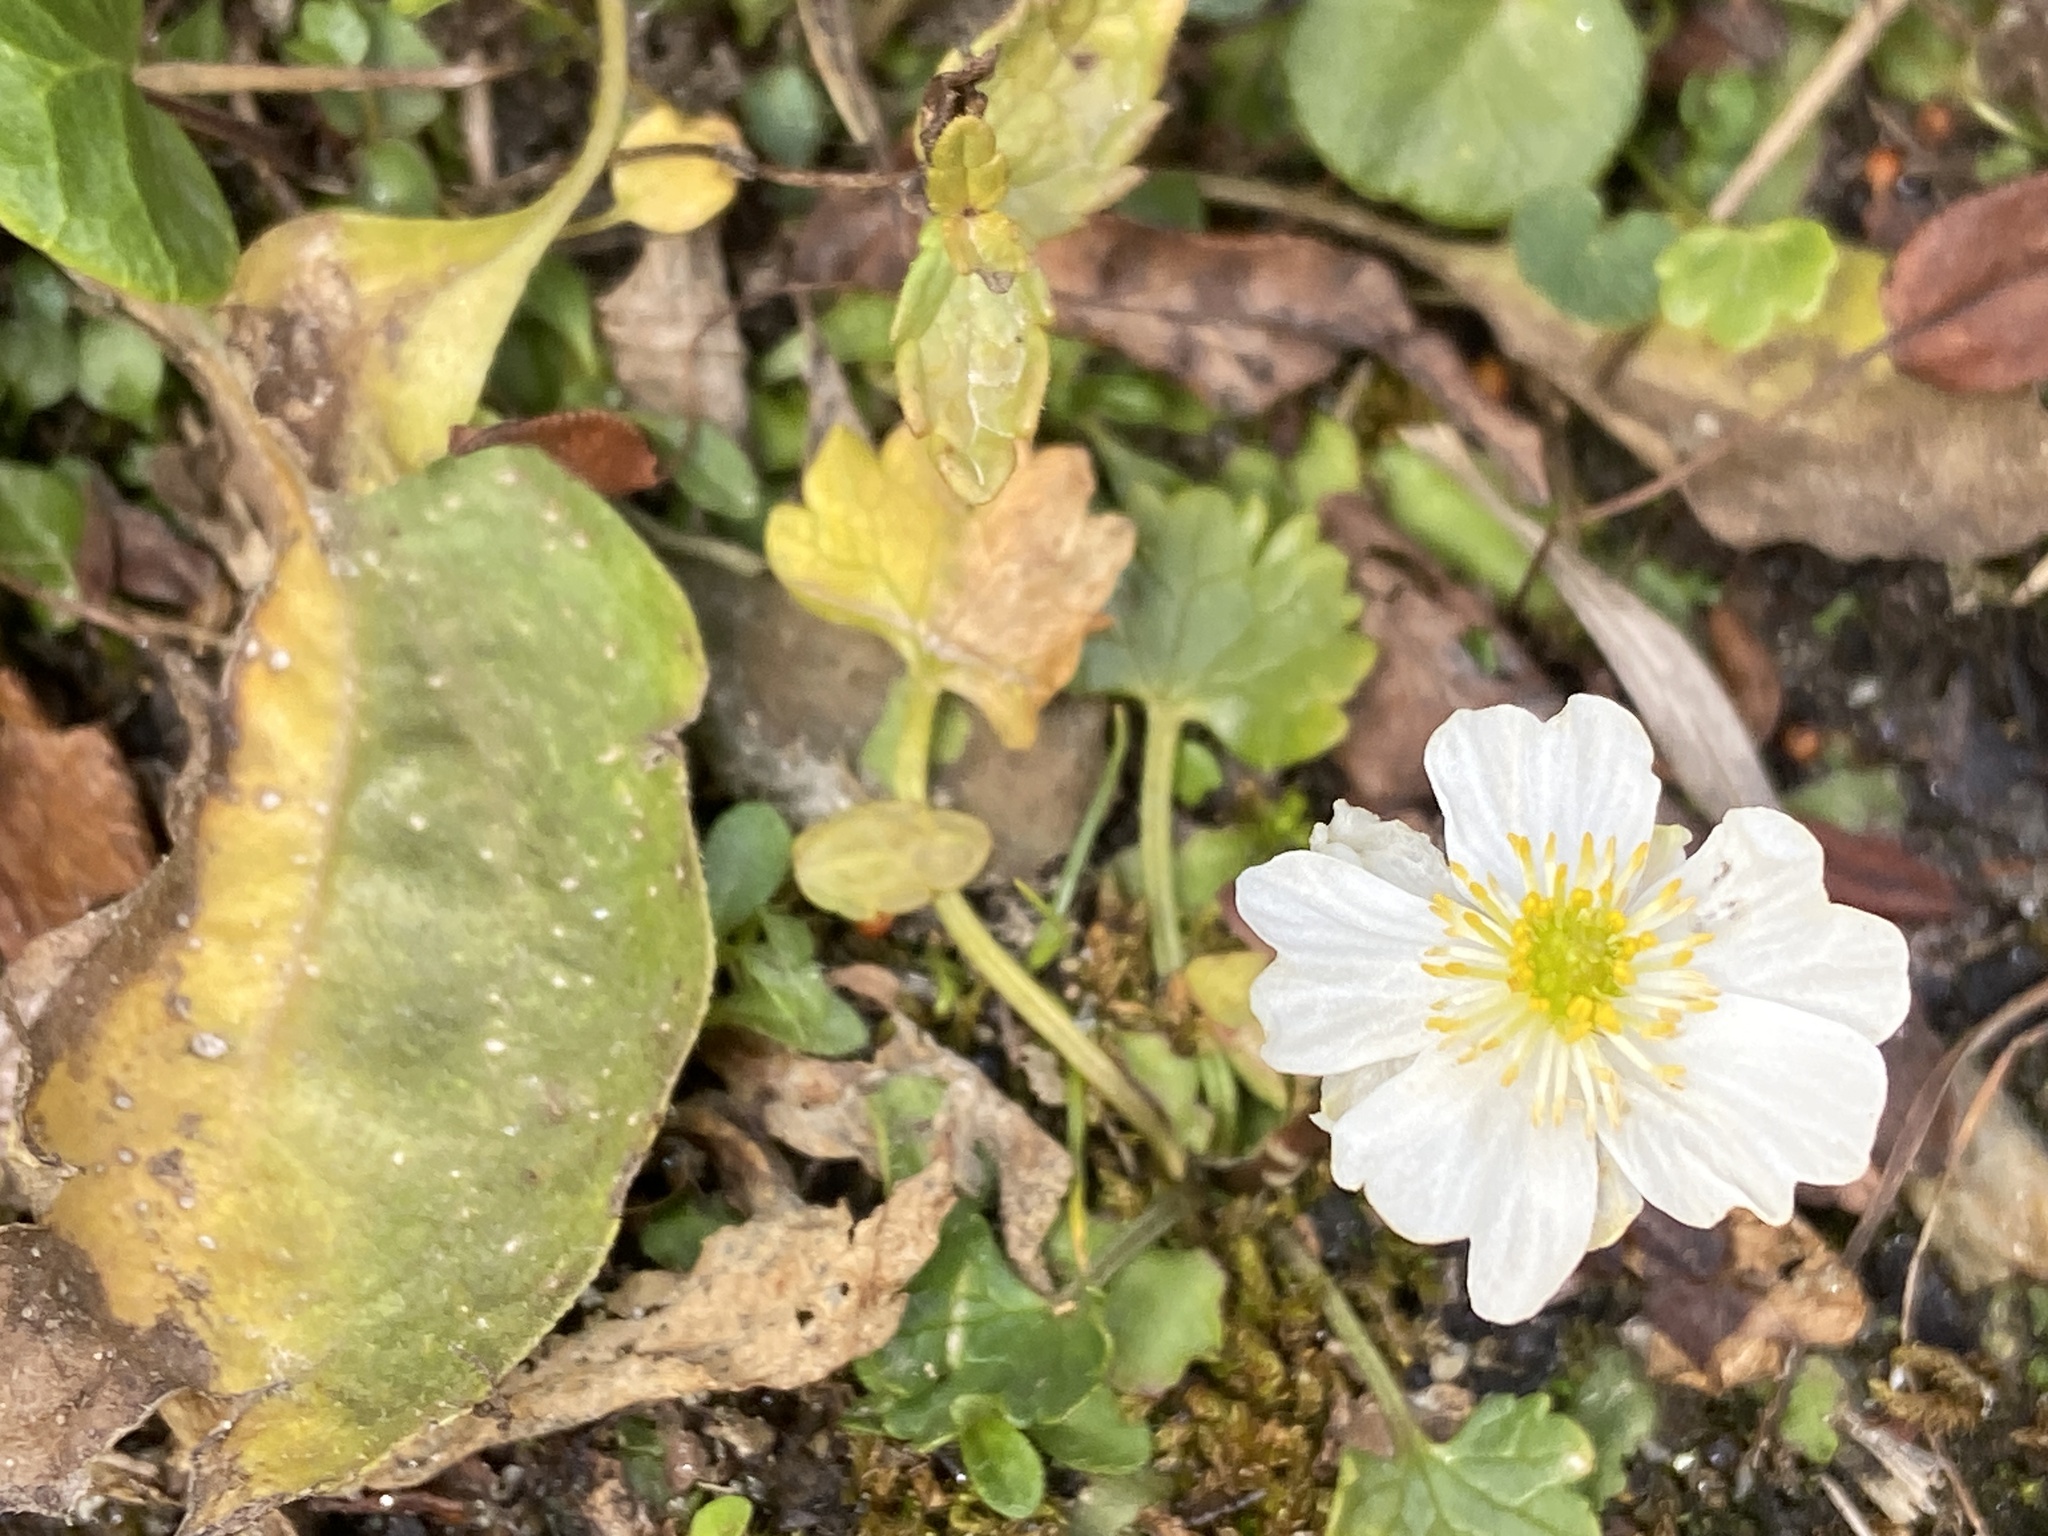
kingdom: Plantae
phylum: Tracheophyta
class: Magnoliopsida
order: Ranunculales
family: Ranunculaceae
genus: Ranunculus
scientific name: Ranunculus alpestris
